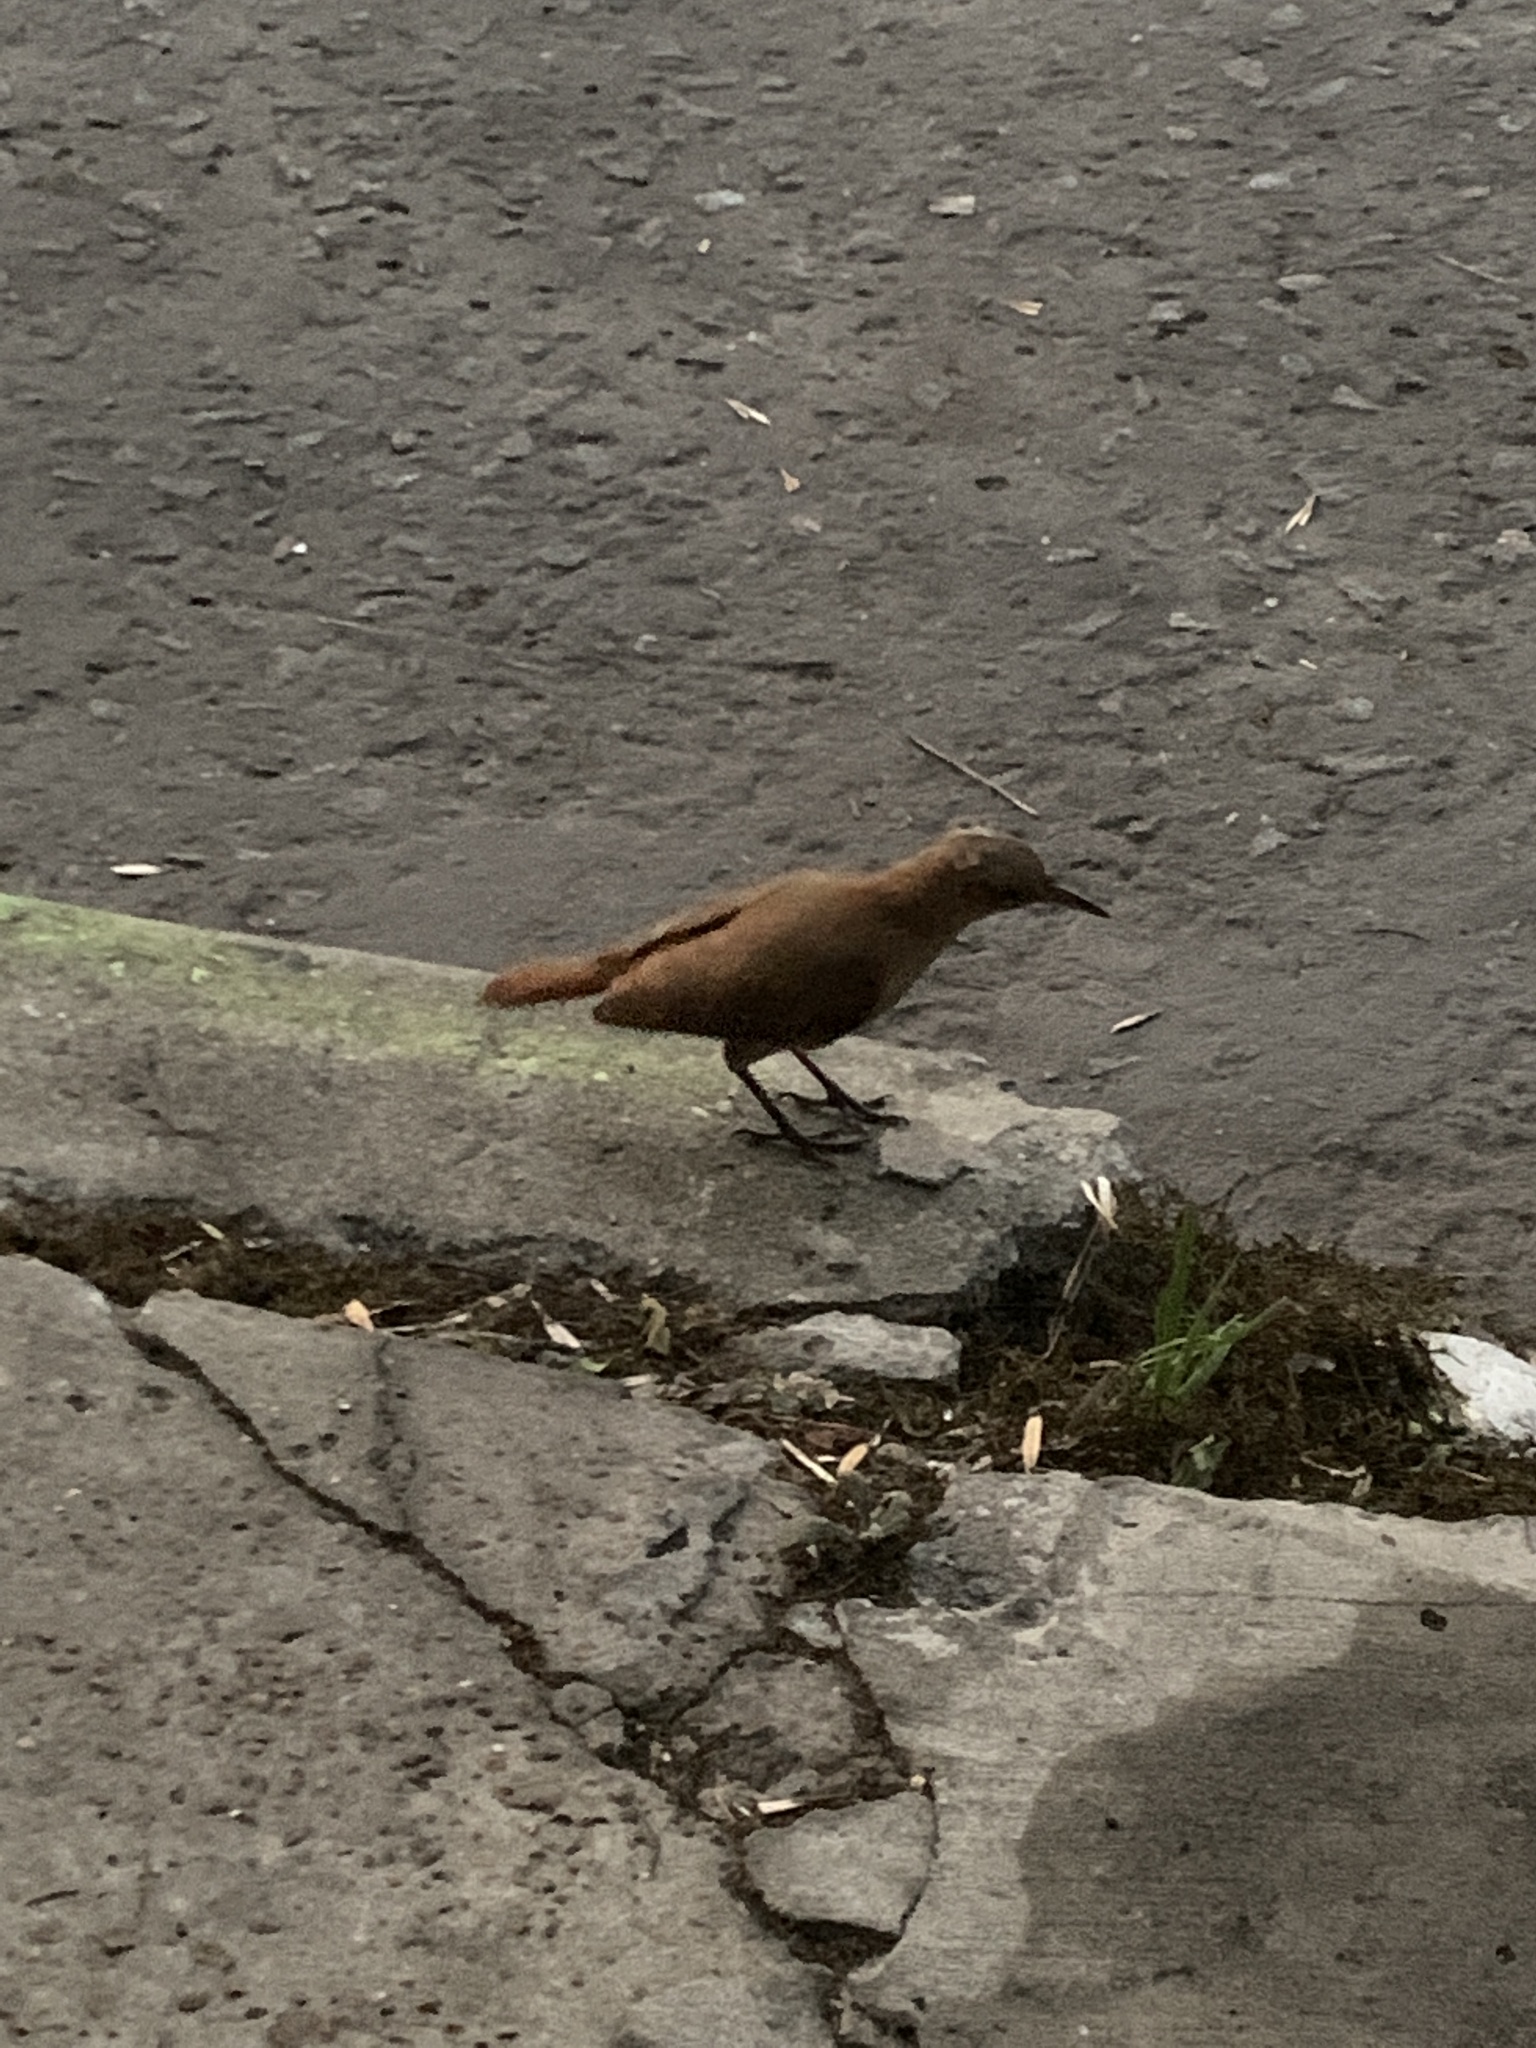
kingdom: Animalia
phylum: Chordata
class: Aves
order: Passeriformes
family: Furnariidae
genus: Furnarius
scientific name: Furnarius rufus
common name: Rufous hornero
